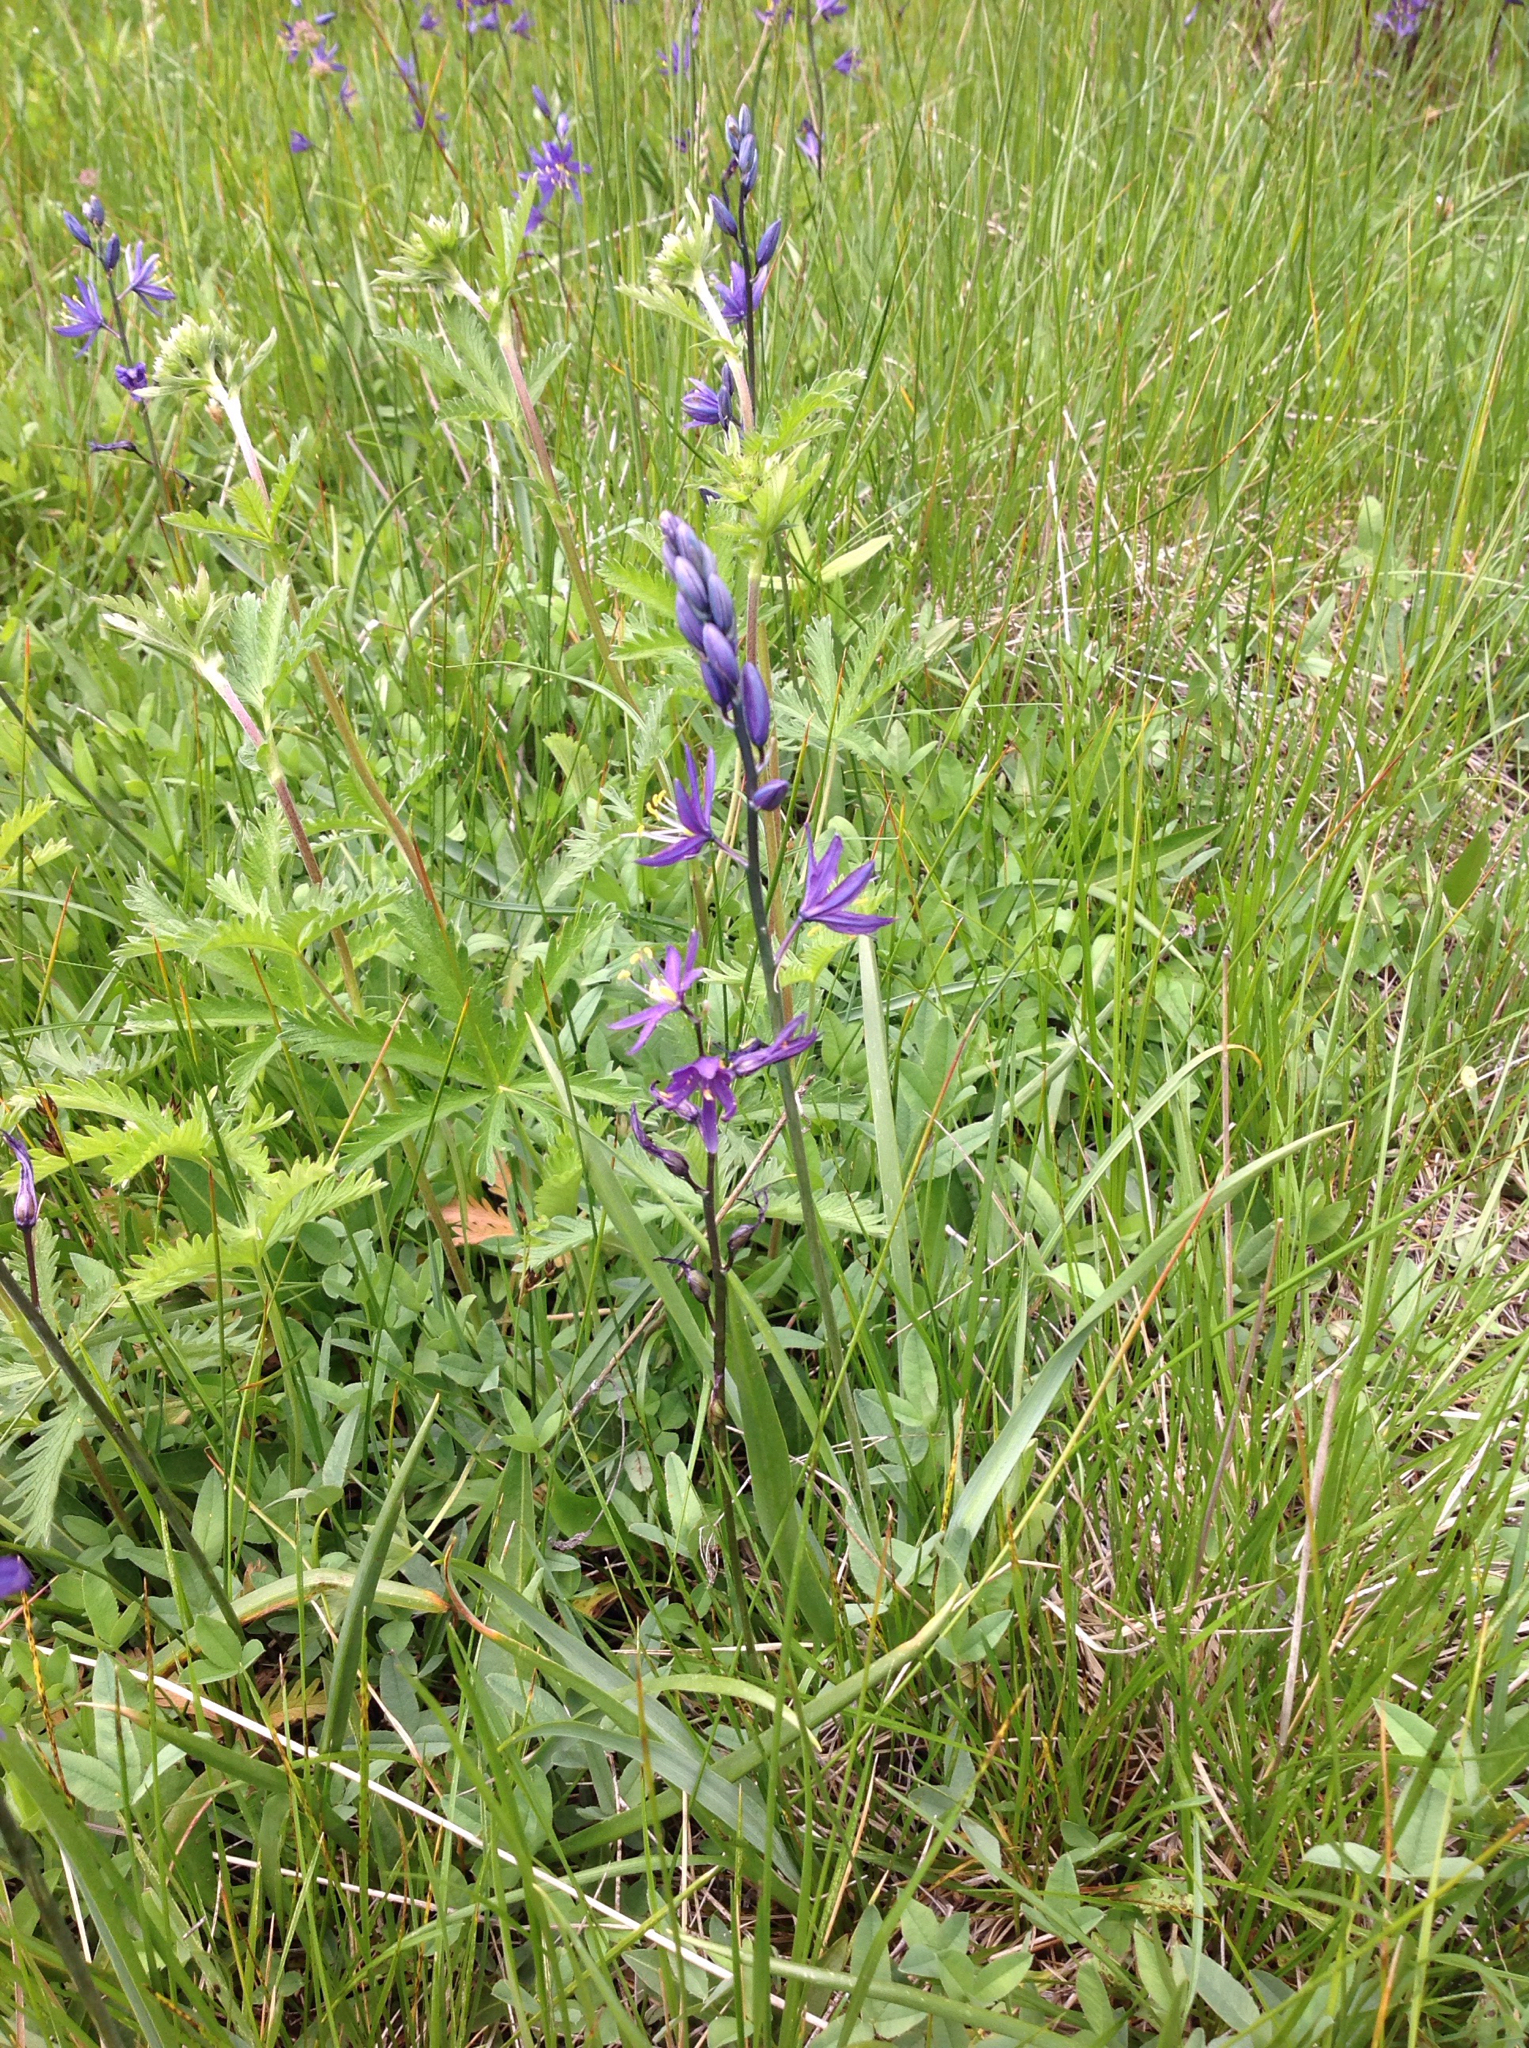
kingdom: Plantae
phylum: Tracheophyta
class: Liliopsida
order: Asparagales
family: Asparagaceae
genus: Camassia
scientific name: Camassia quamash
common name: Common camas
